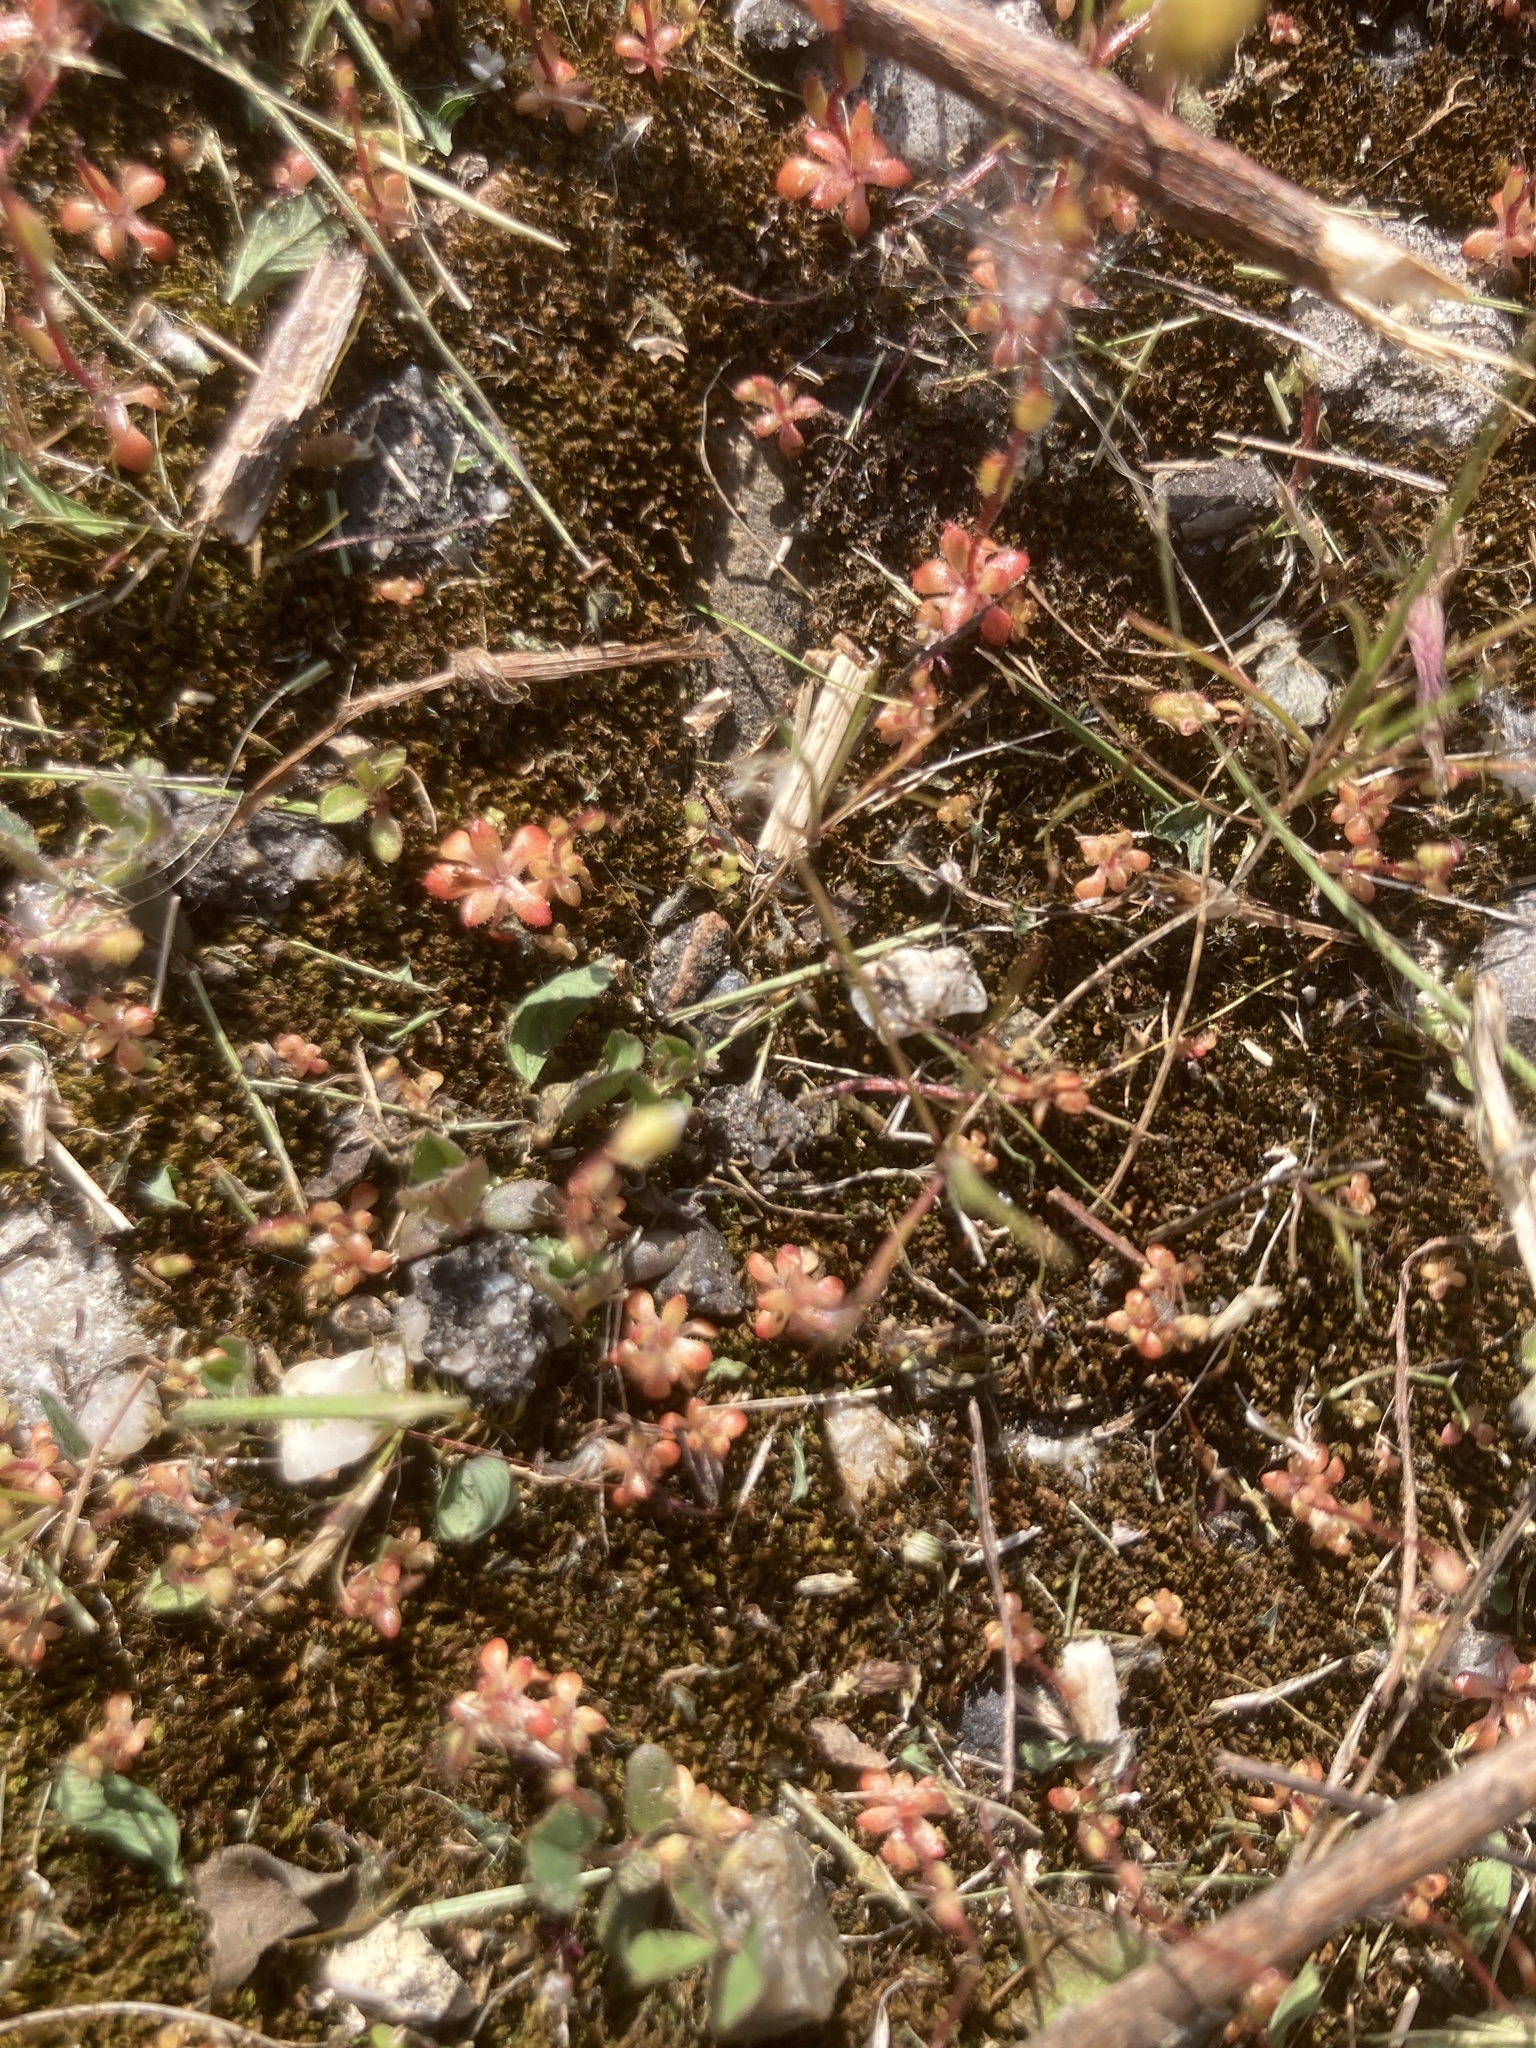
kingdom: Plantae
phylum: Tracheophyta
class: Magnoliopsida
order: Saxifragales
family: Saxifragaceae
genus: Saxifraga
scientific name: Saxifraga tridactylites
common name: Rue-leaved saxifrage
